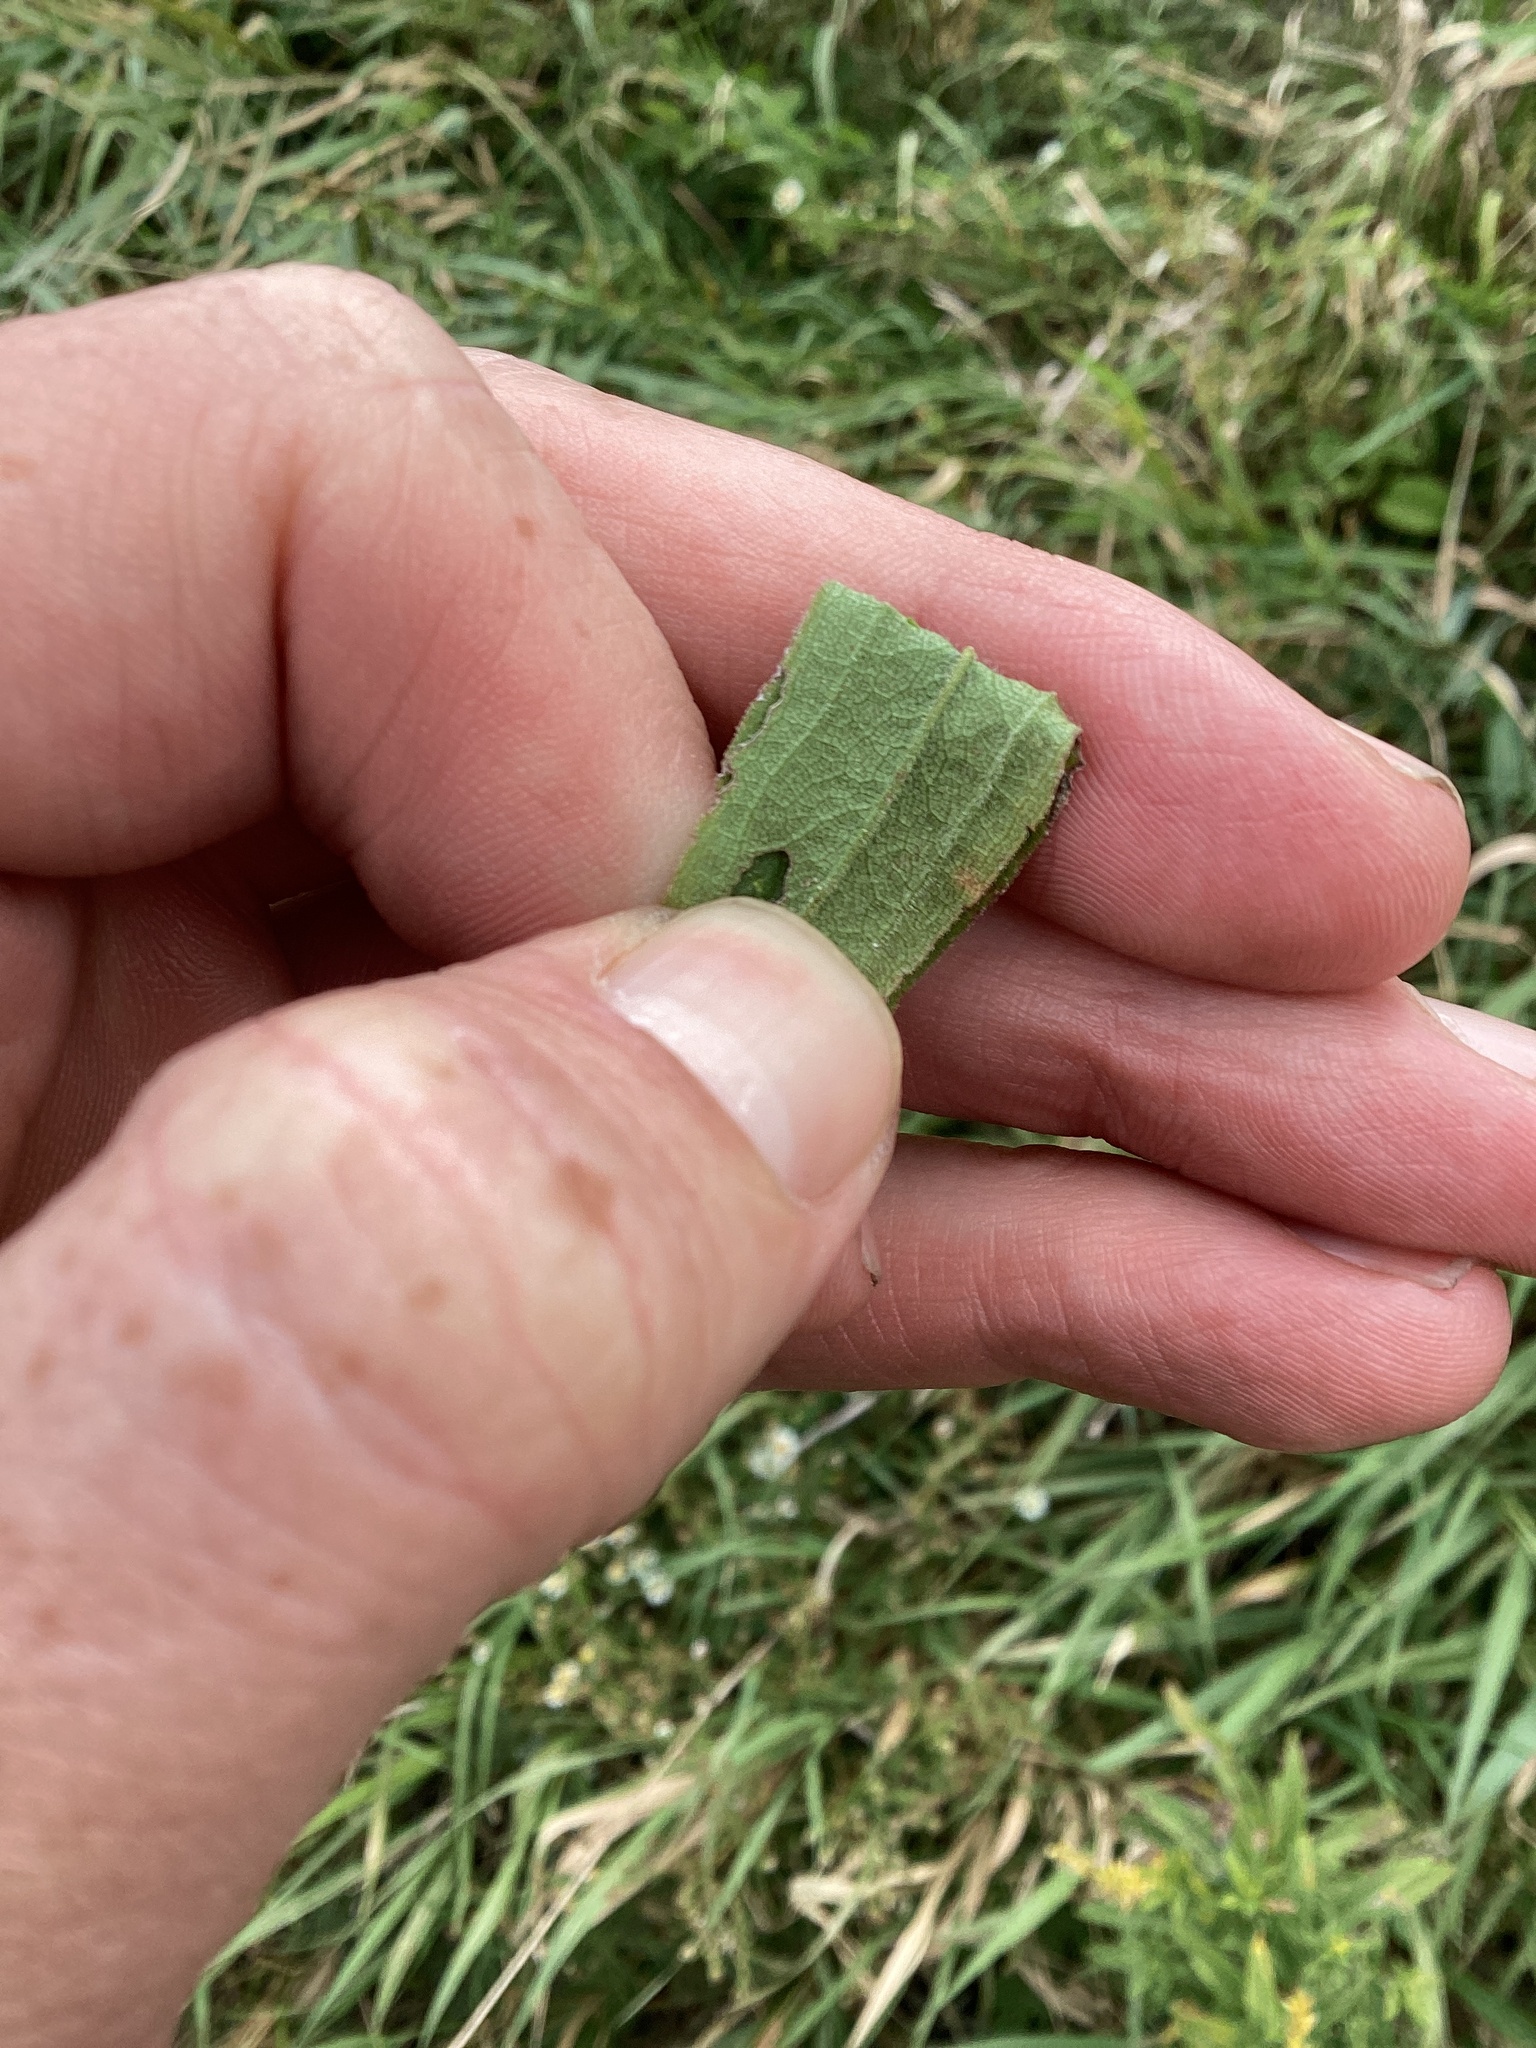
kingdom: Plantae
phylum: Tracheophyta
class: Magnoliopsida
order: Asterales
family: Asteraceae
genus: Solidago
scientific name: Solidago altissima
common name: Late goldenrod
